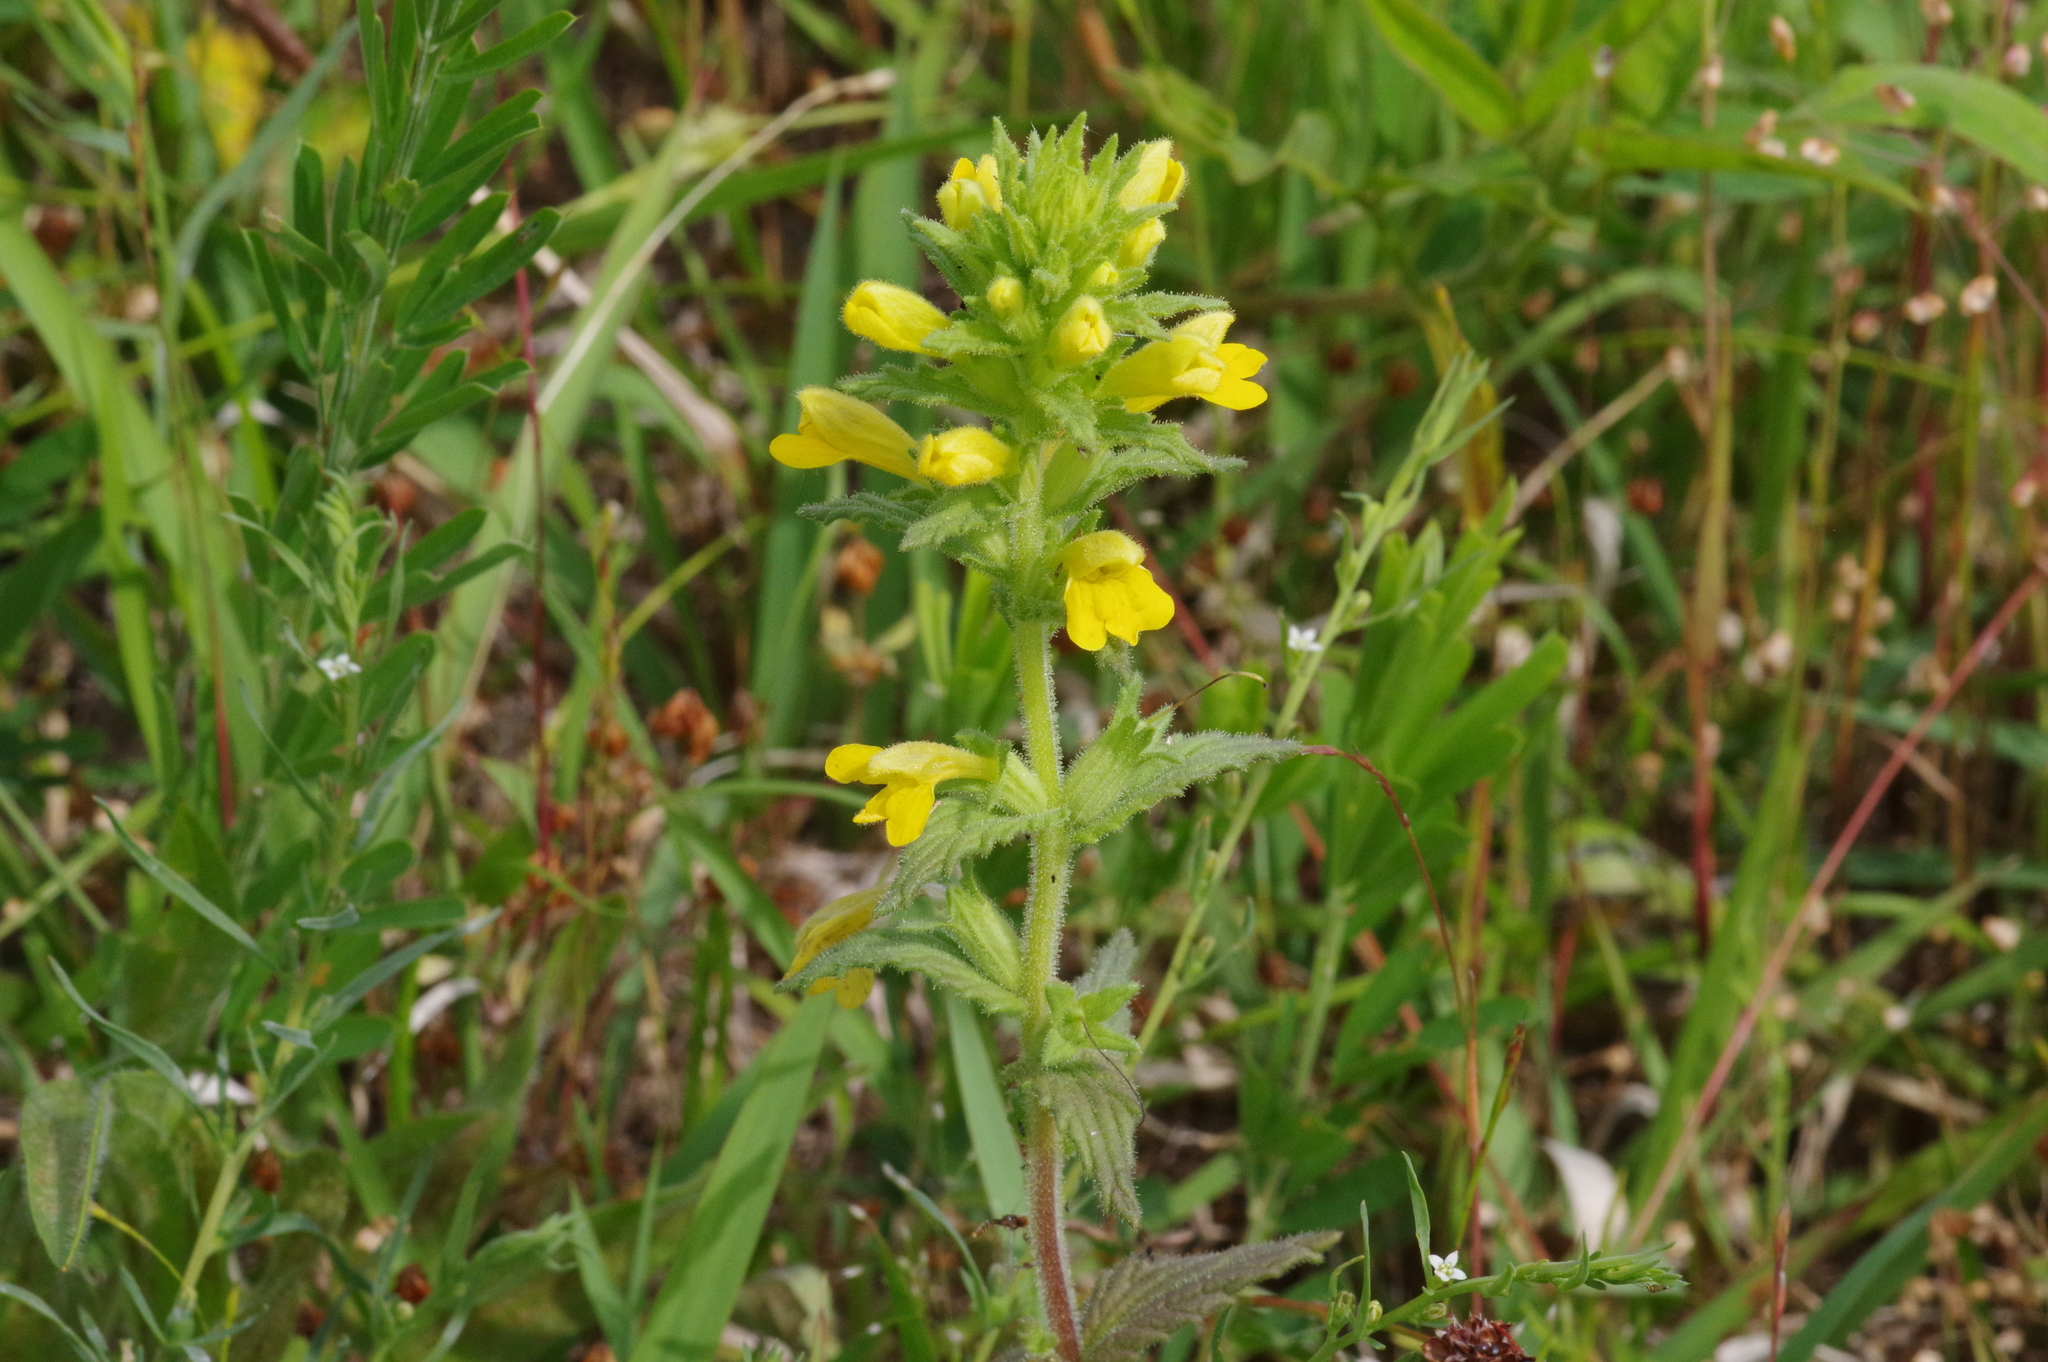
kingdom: Plantae
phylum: Tracheophyta
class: Magnoliopsida
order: Lamiales
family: Orobanchaceae
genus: Bellardia
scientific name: Bellardia viscosa
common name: Sticky parentucellia
